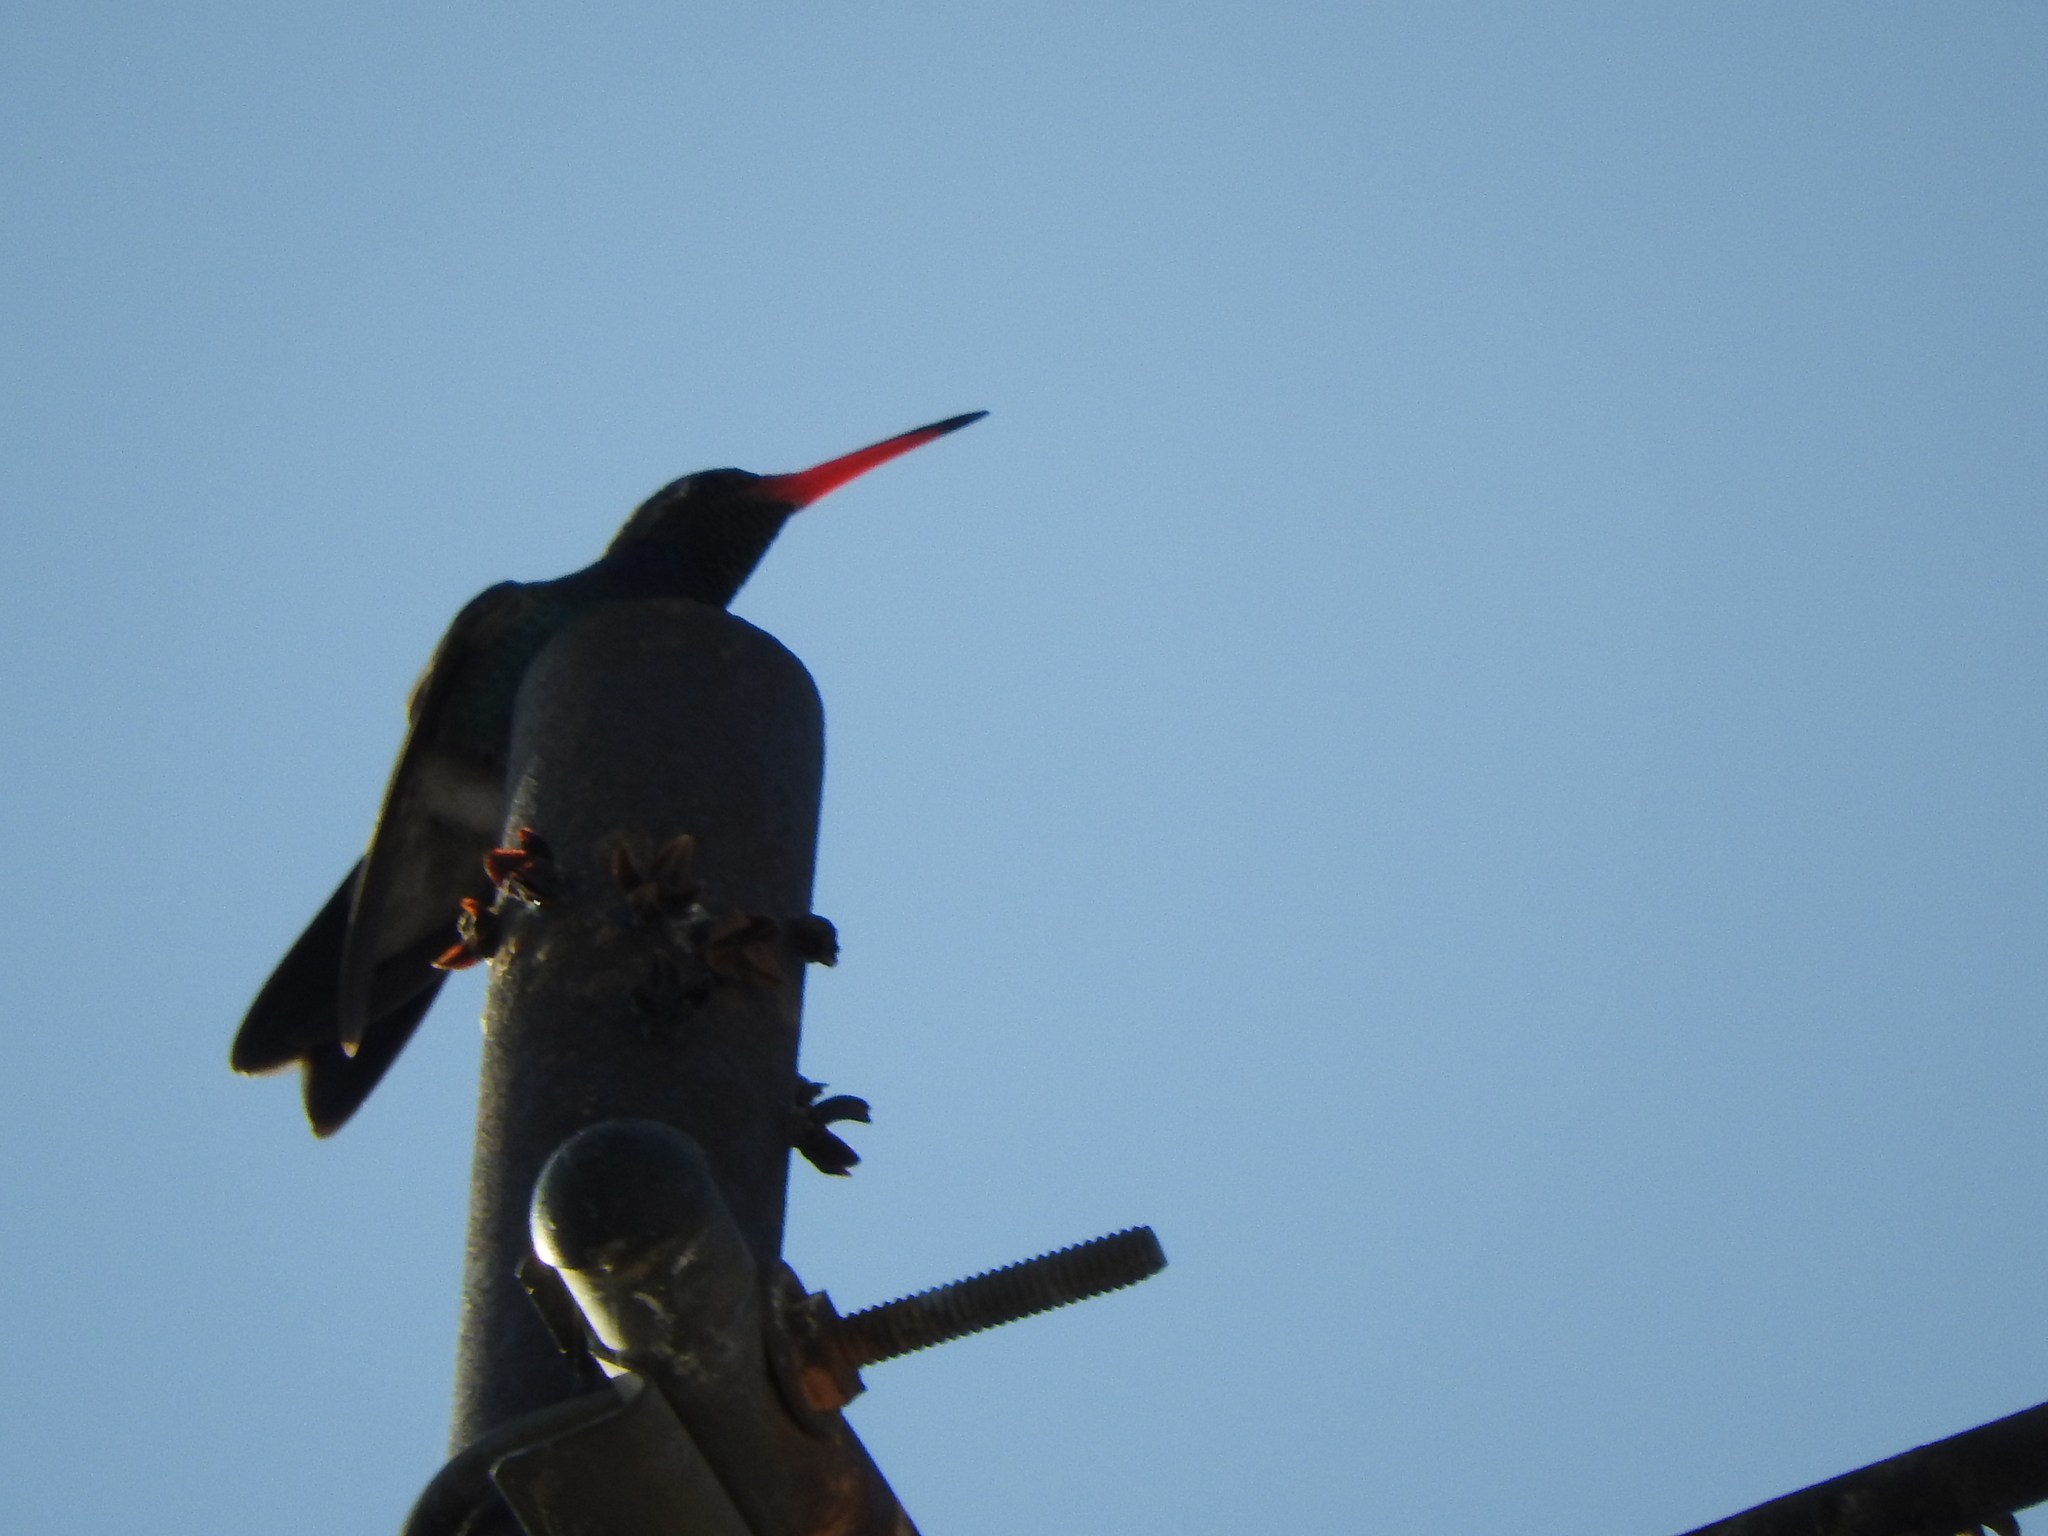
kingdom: Animalia
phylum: Chordata
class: Aves
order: Apodiformes
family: Trochilidae
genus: Cynanthus
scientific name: Cynanthus latirostris
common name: Broad-billed hummingbird
